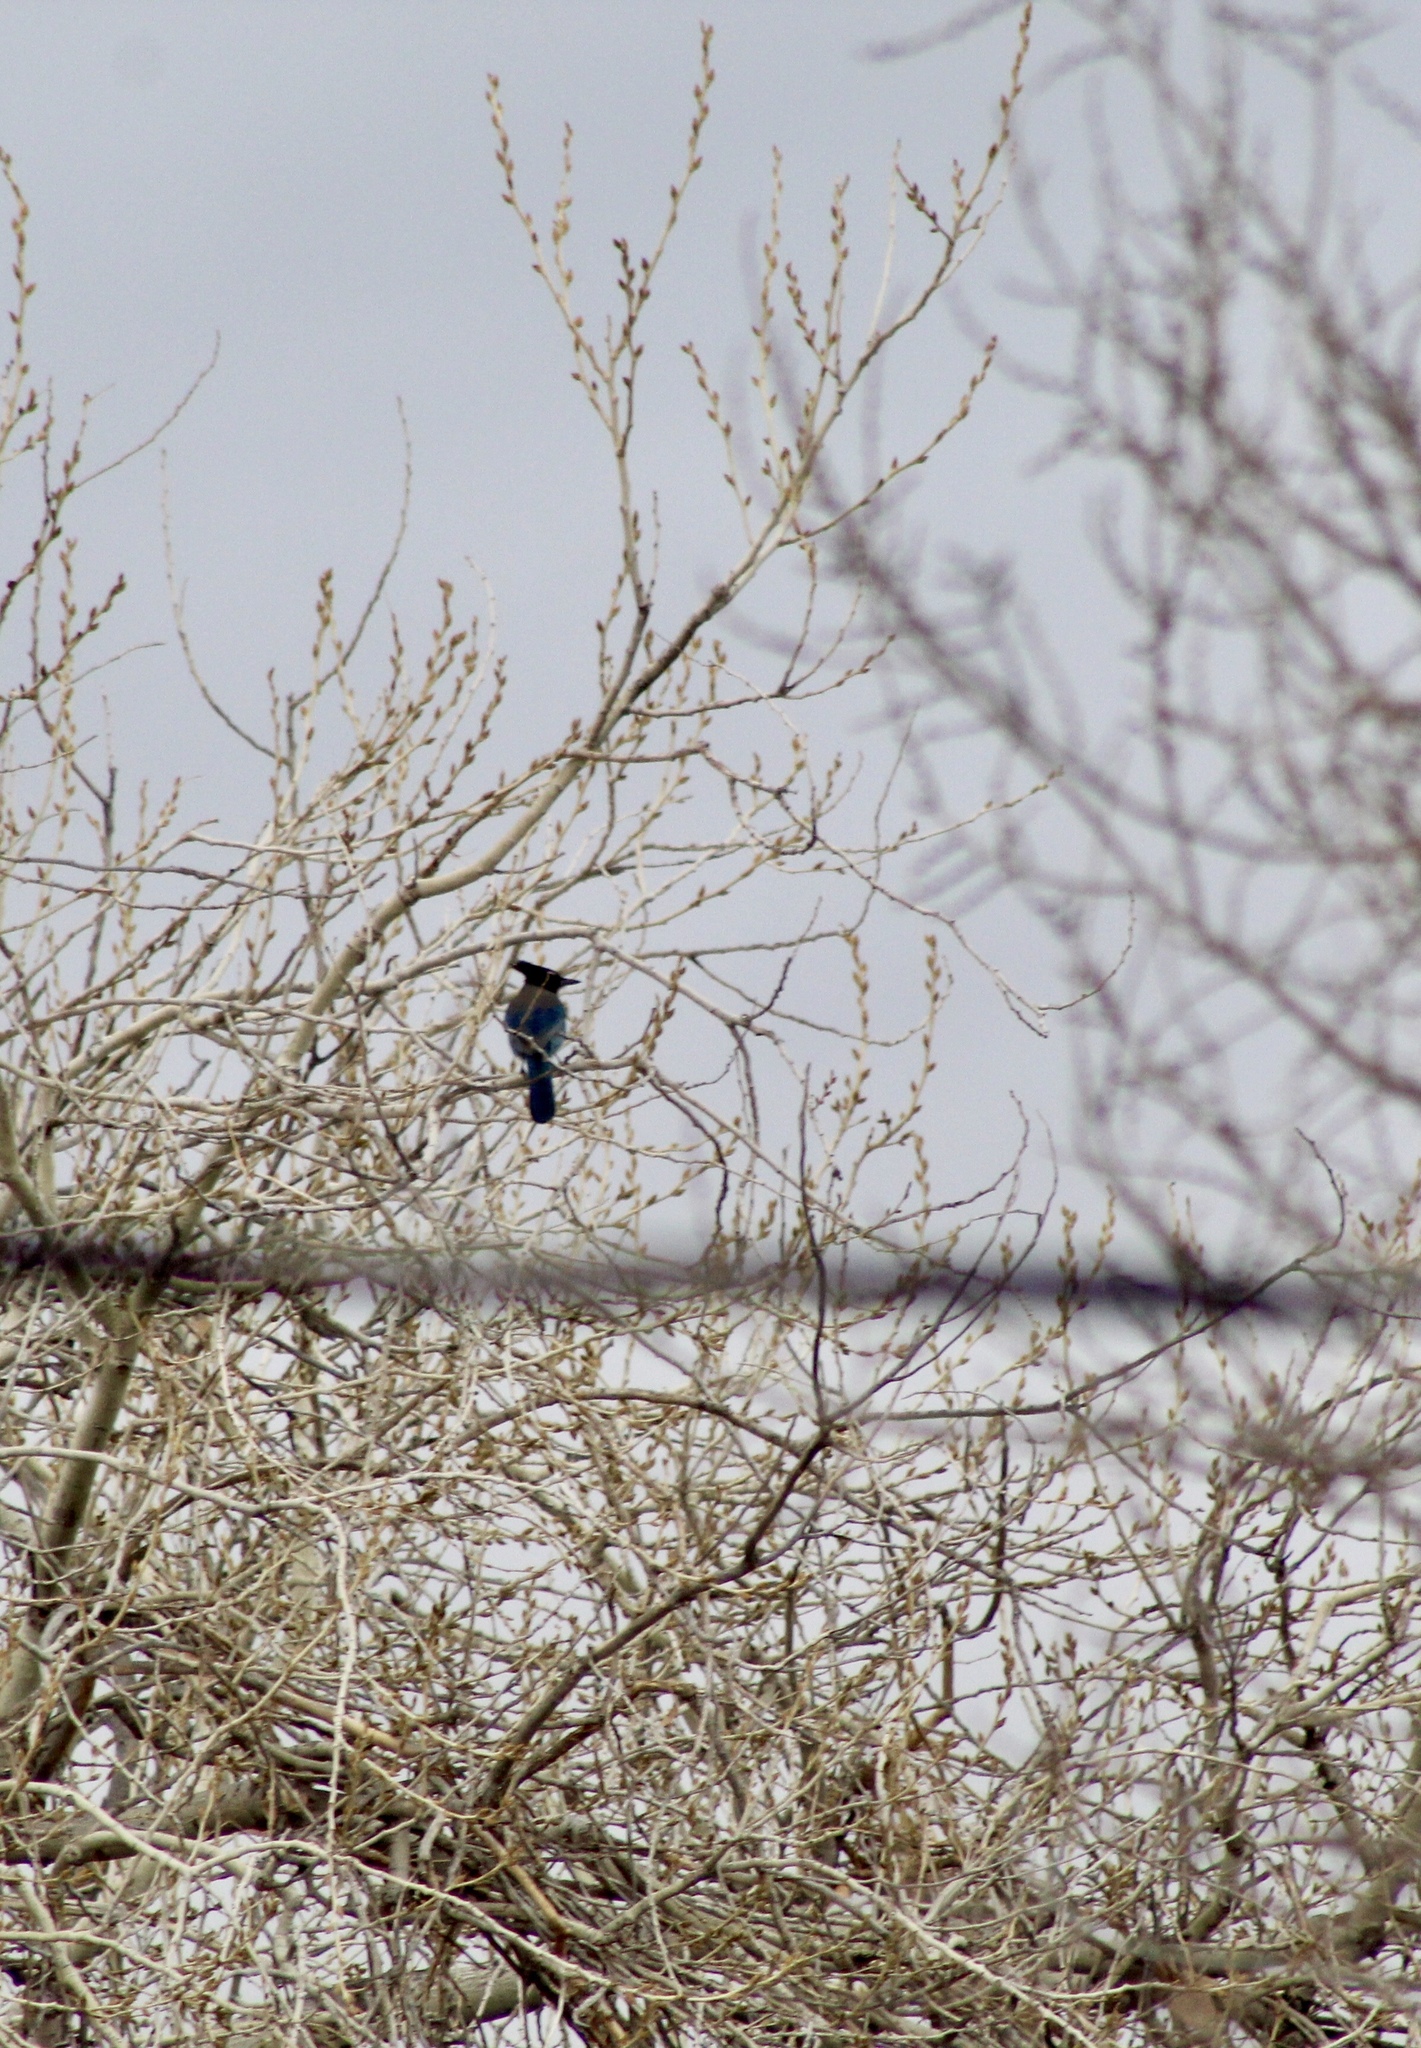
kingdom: Animalia
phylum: Chordata
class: Aves
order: Passeriformes
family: Corvidae
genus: Cyanocitta
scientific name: Cyanocitta stelleri
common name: Steller's jay
